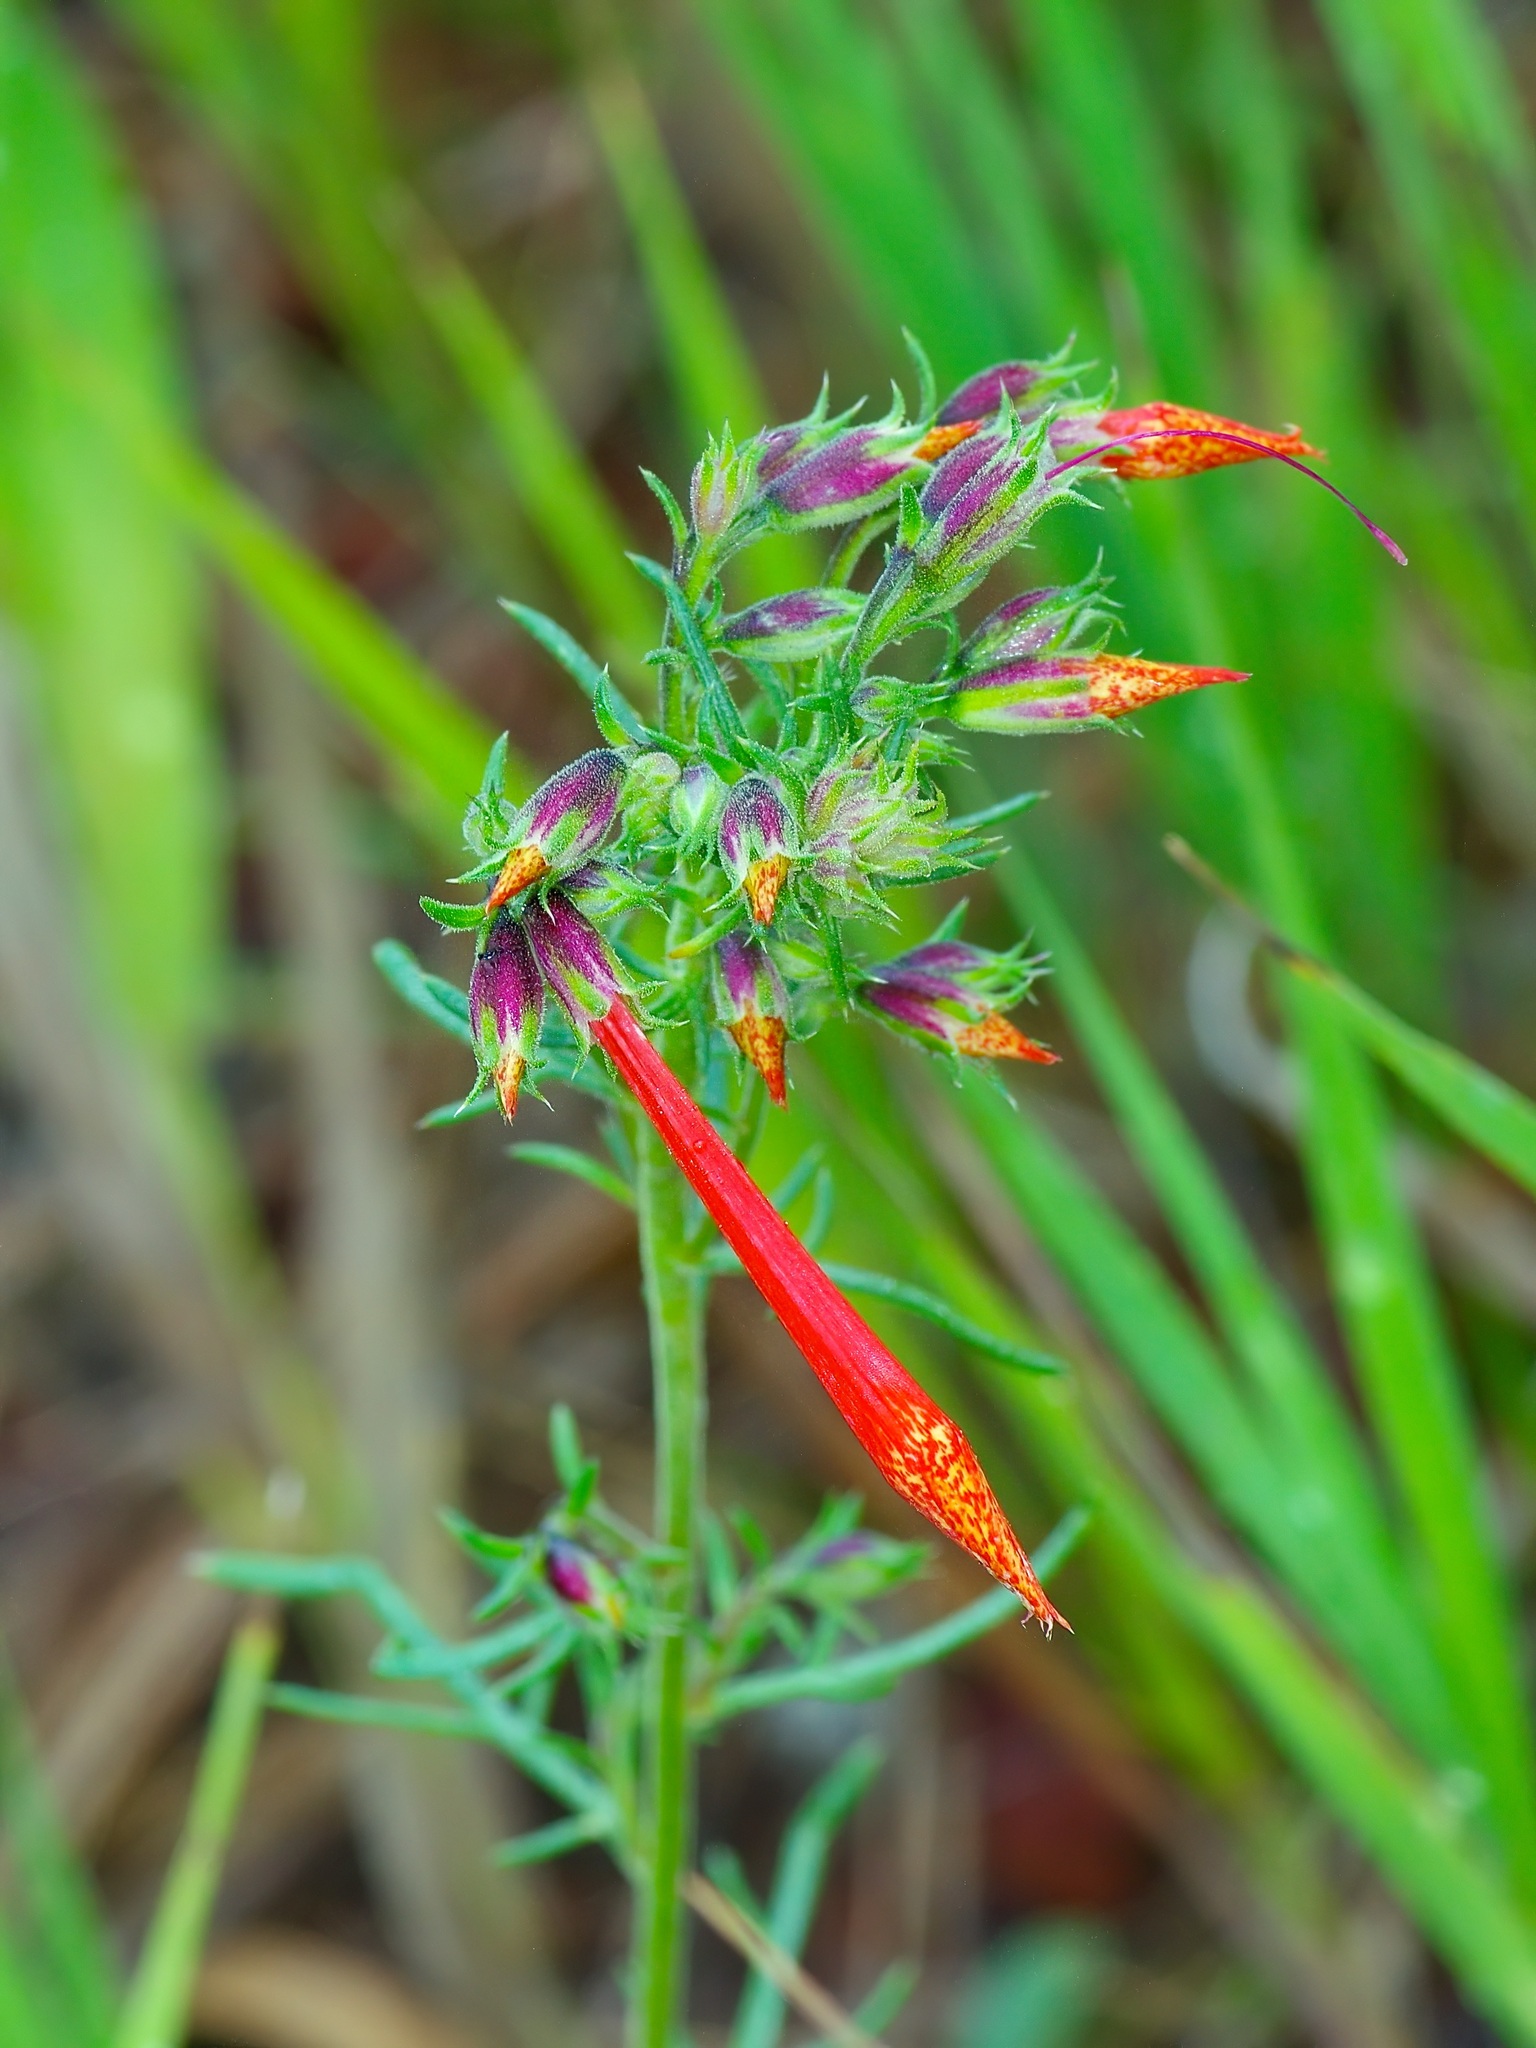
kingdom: Plantae
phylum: Tracheophyta
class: Magnoliopsida
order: Ericales
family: Polemoniaceae
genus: Ipomopsis
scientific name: Ipomopsis aggregata
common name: Scarlet gilia
